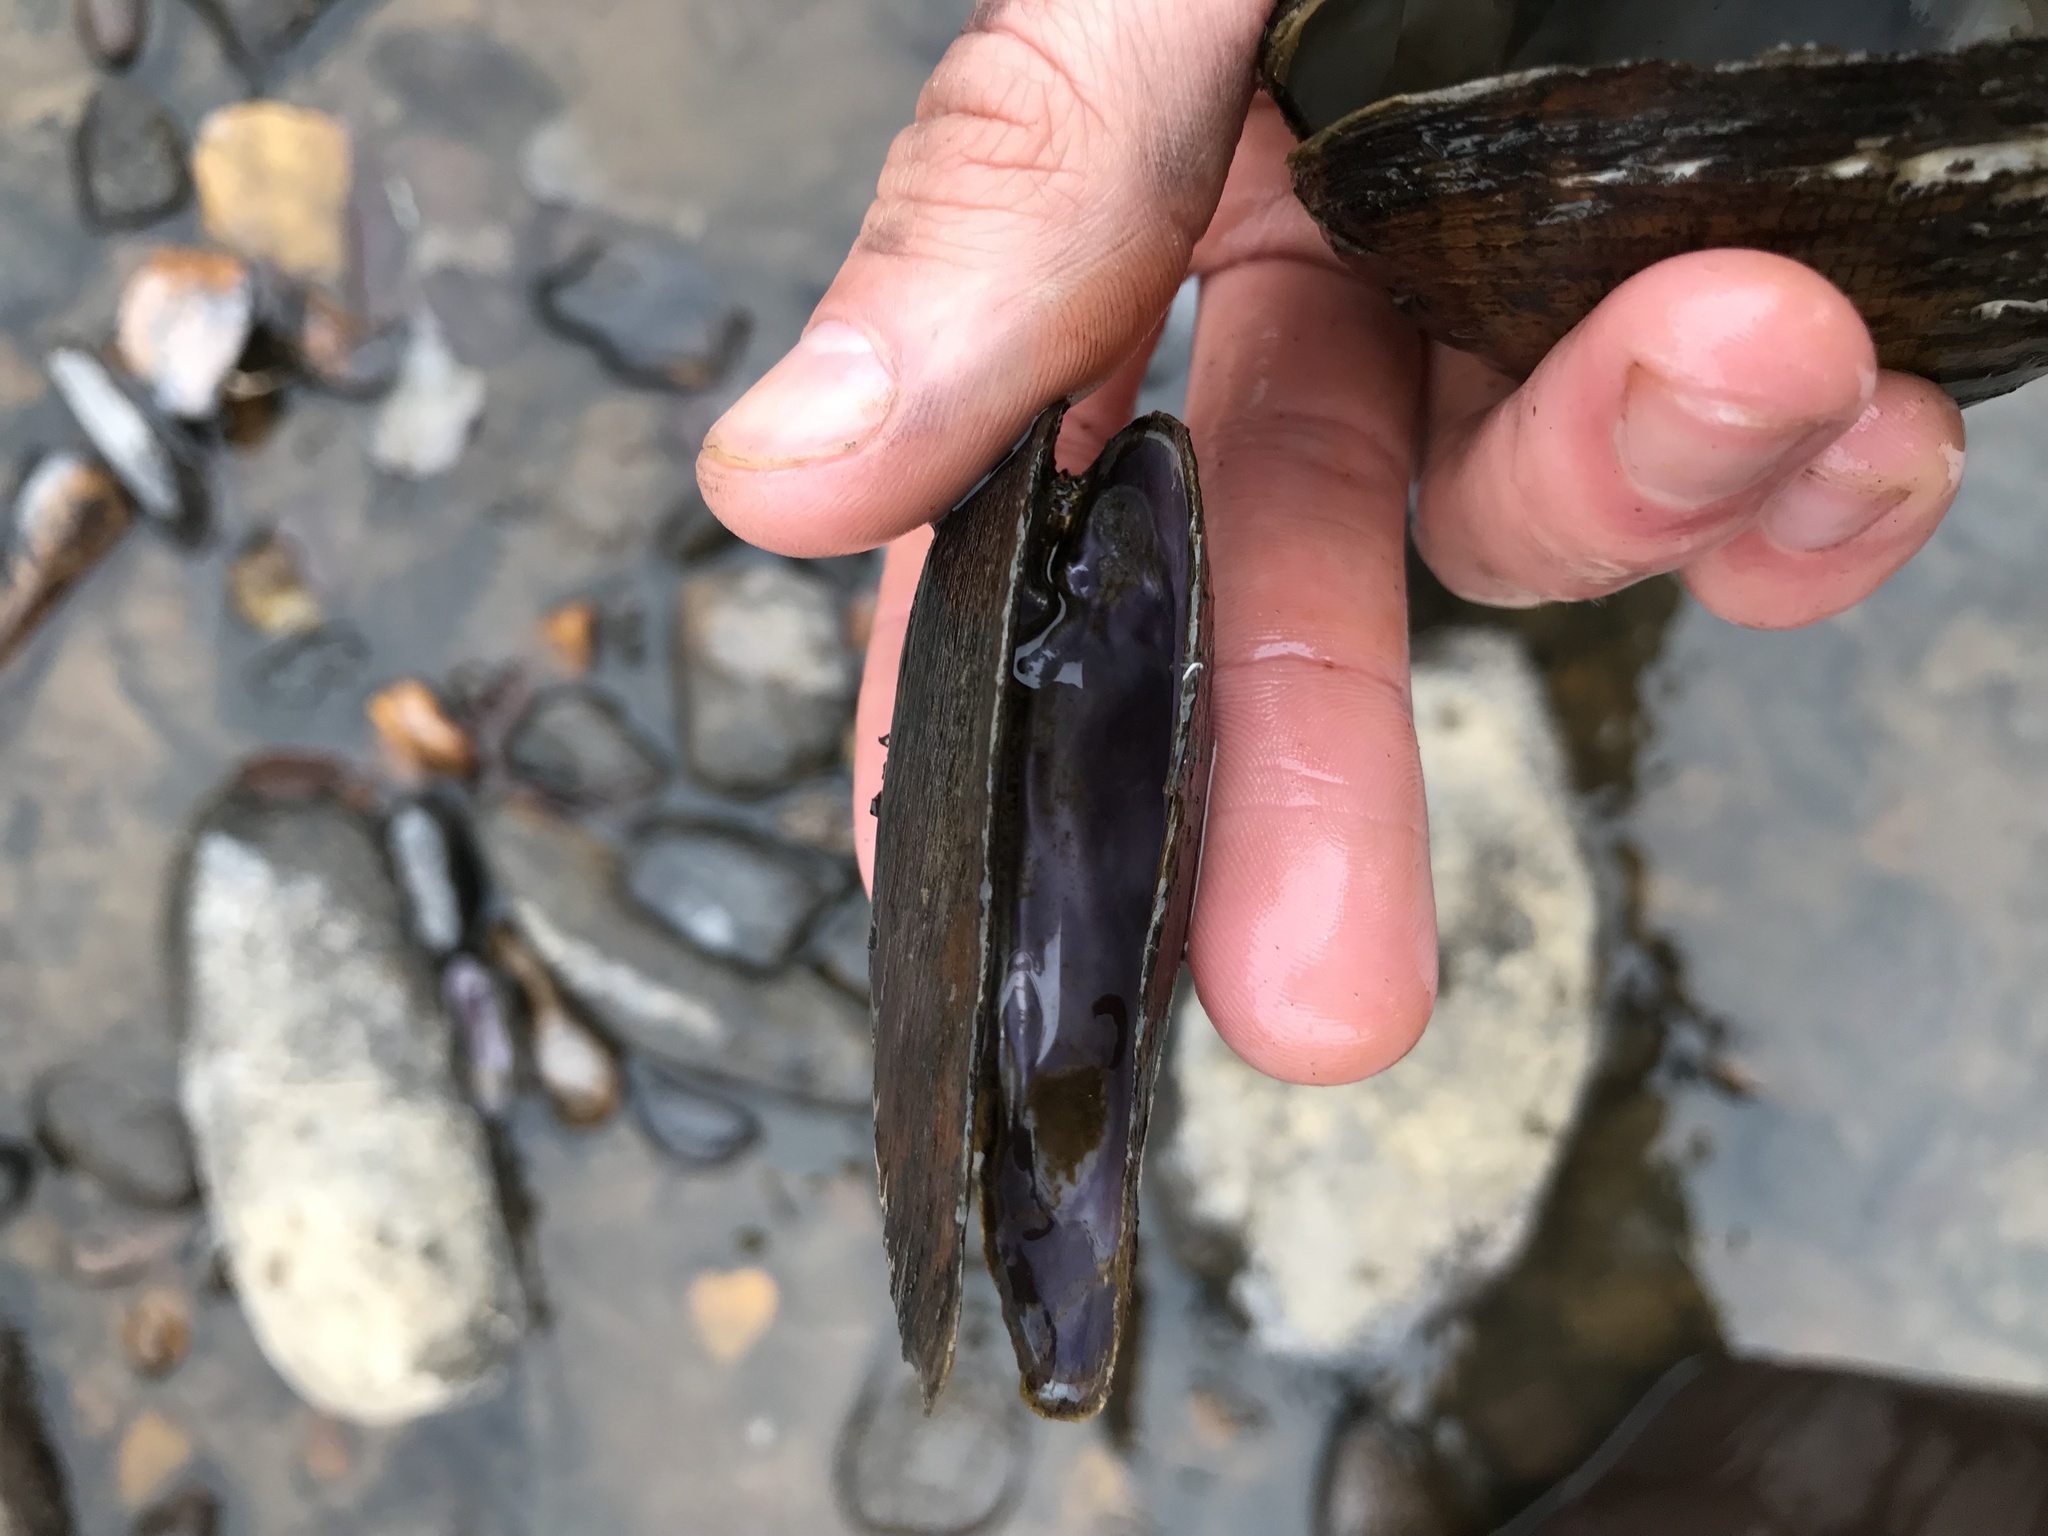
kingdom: Animalia
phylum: Mollusca
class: Bivalvia
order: Unionida
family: Unionidae
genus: Eurynia
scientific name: Eurynia dilatata
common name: Spike
